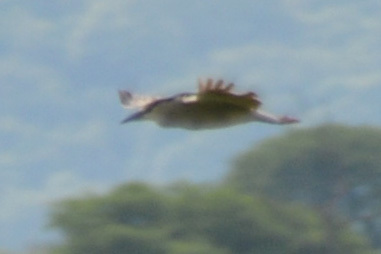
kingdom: Animalia
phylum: Chordata
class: Aves
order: Pelecaniformes
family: Ardeidae
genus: Nycticorax
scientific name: Nycticorax nycticorax
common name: Black-crowned night heron
